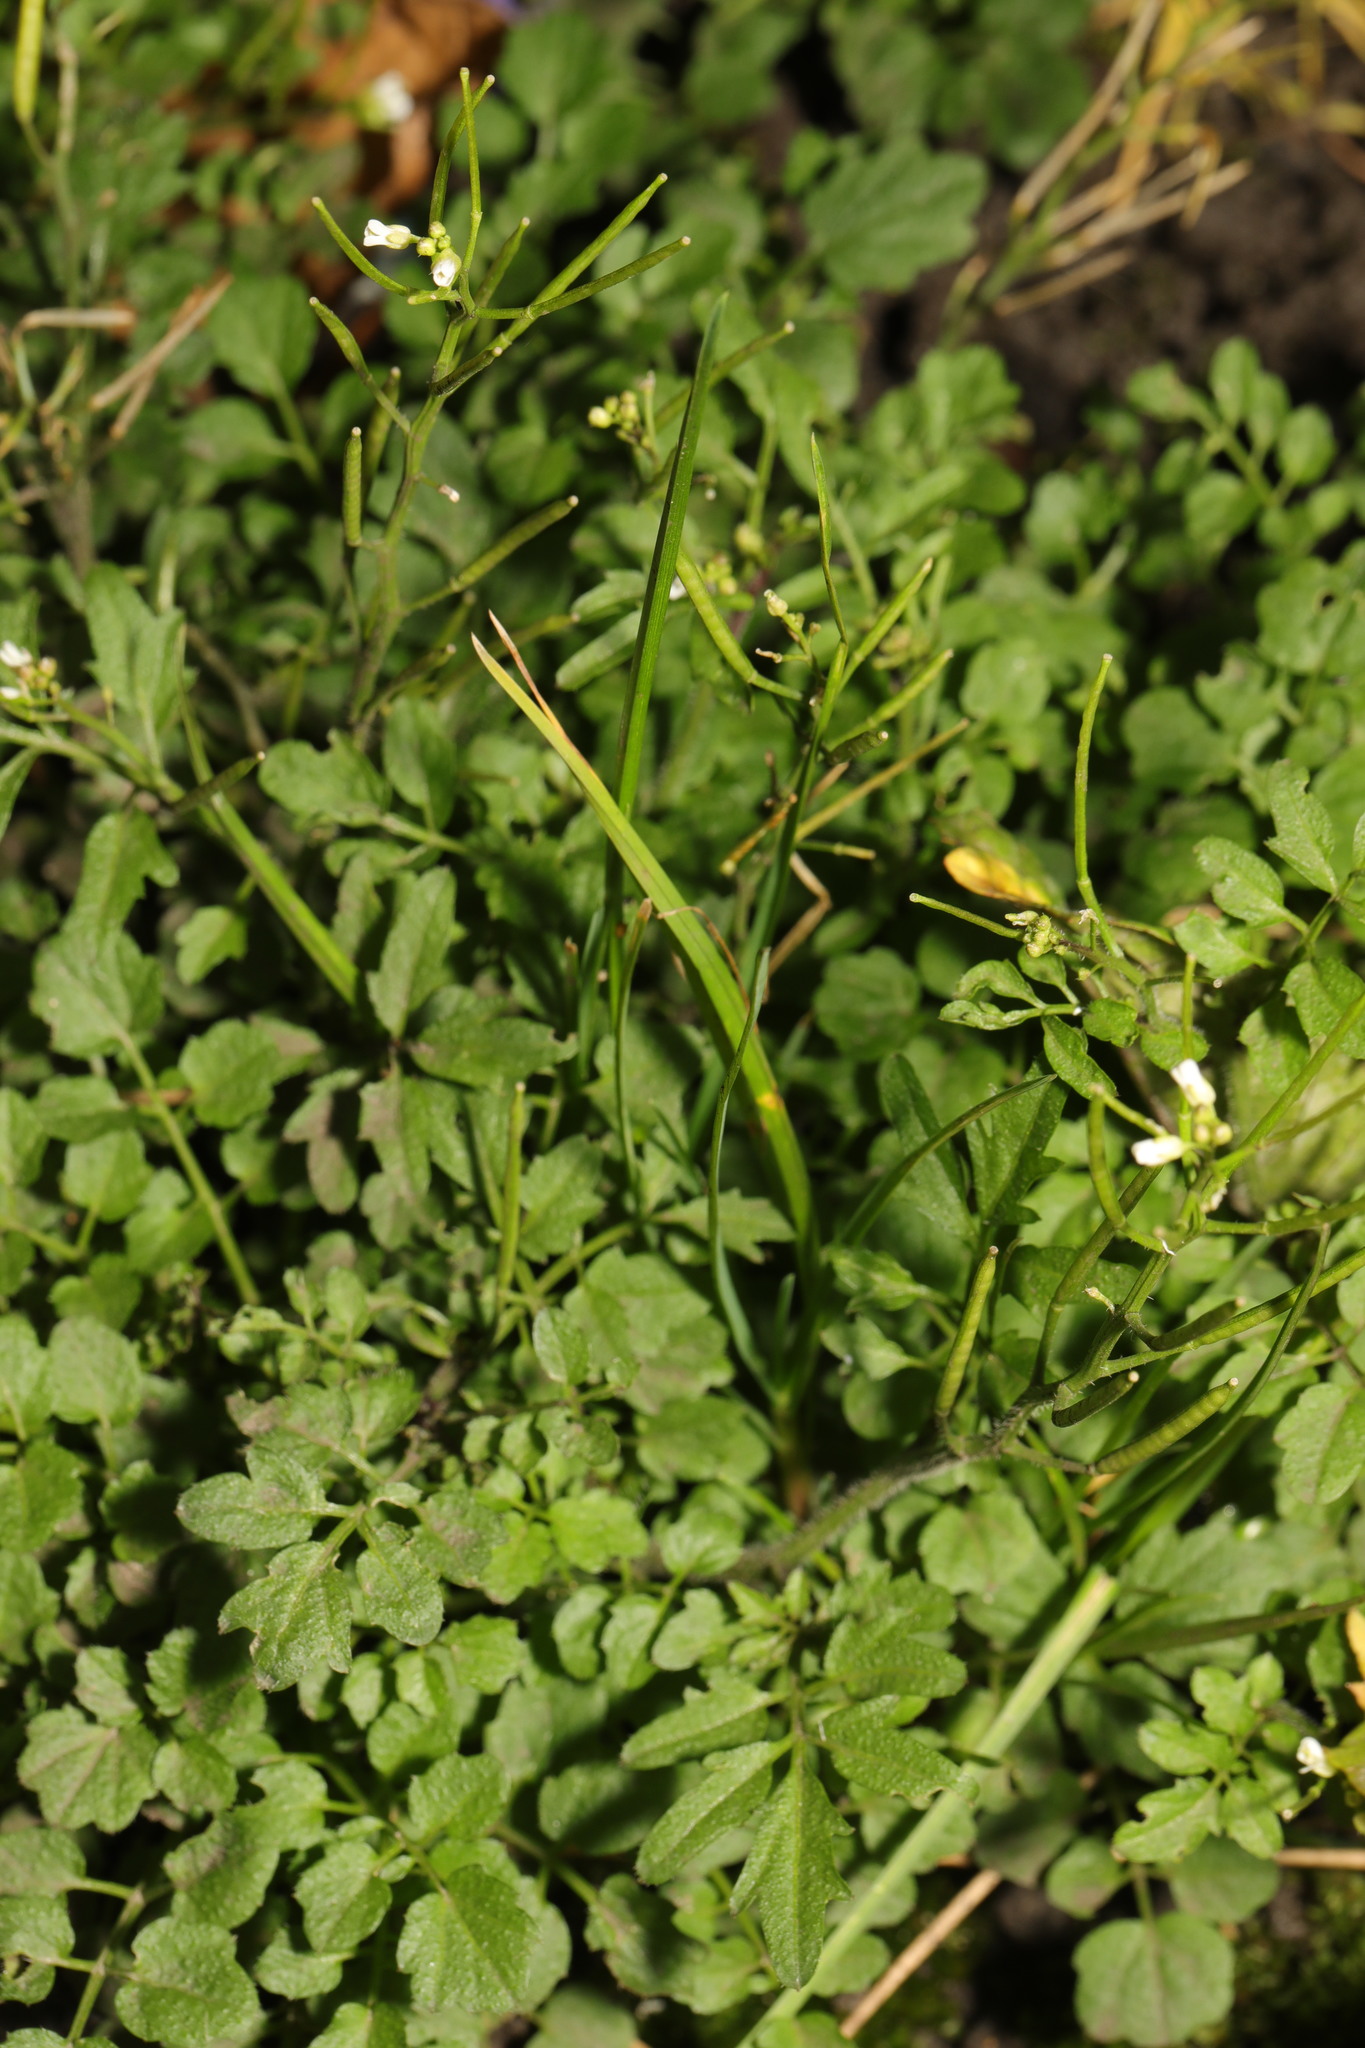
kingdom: Plantae
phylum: Tracheophyta
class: Magnoliopsida
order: Brassicales
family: Brassicaceae
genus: Cardamine
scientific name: Cardamine flexuosa
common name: Woodland bittercress
